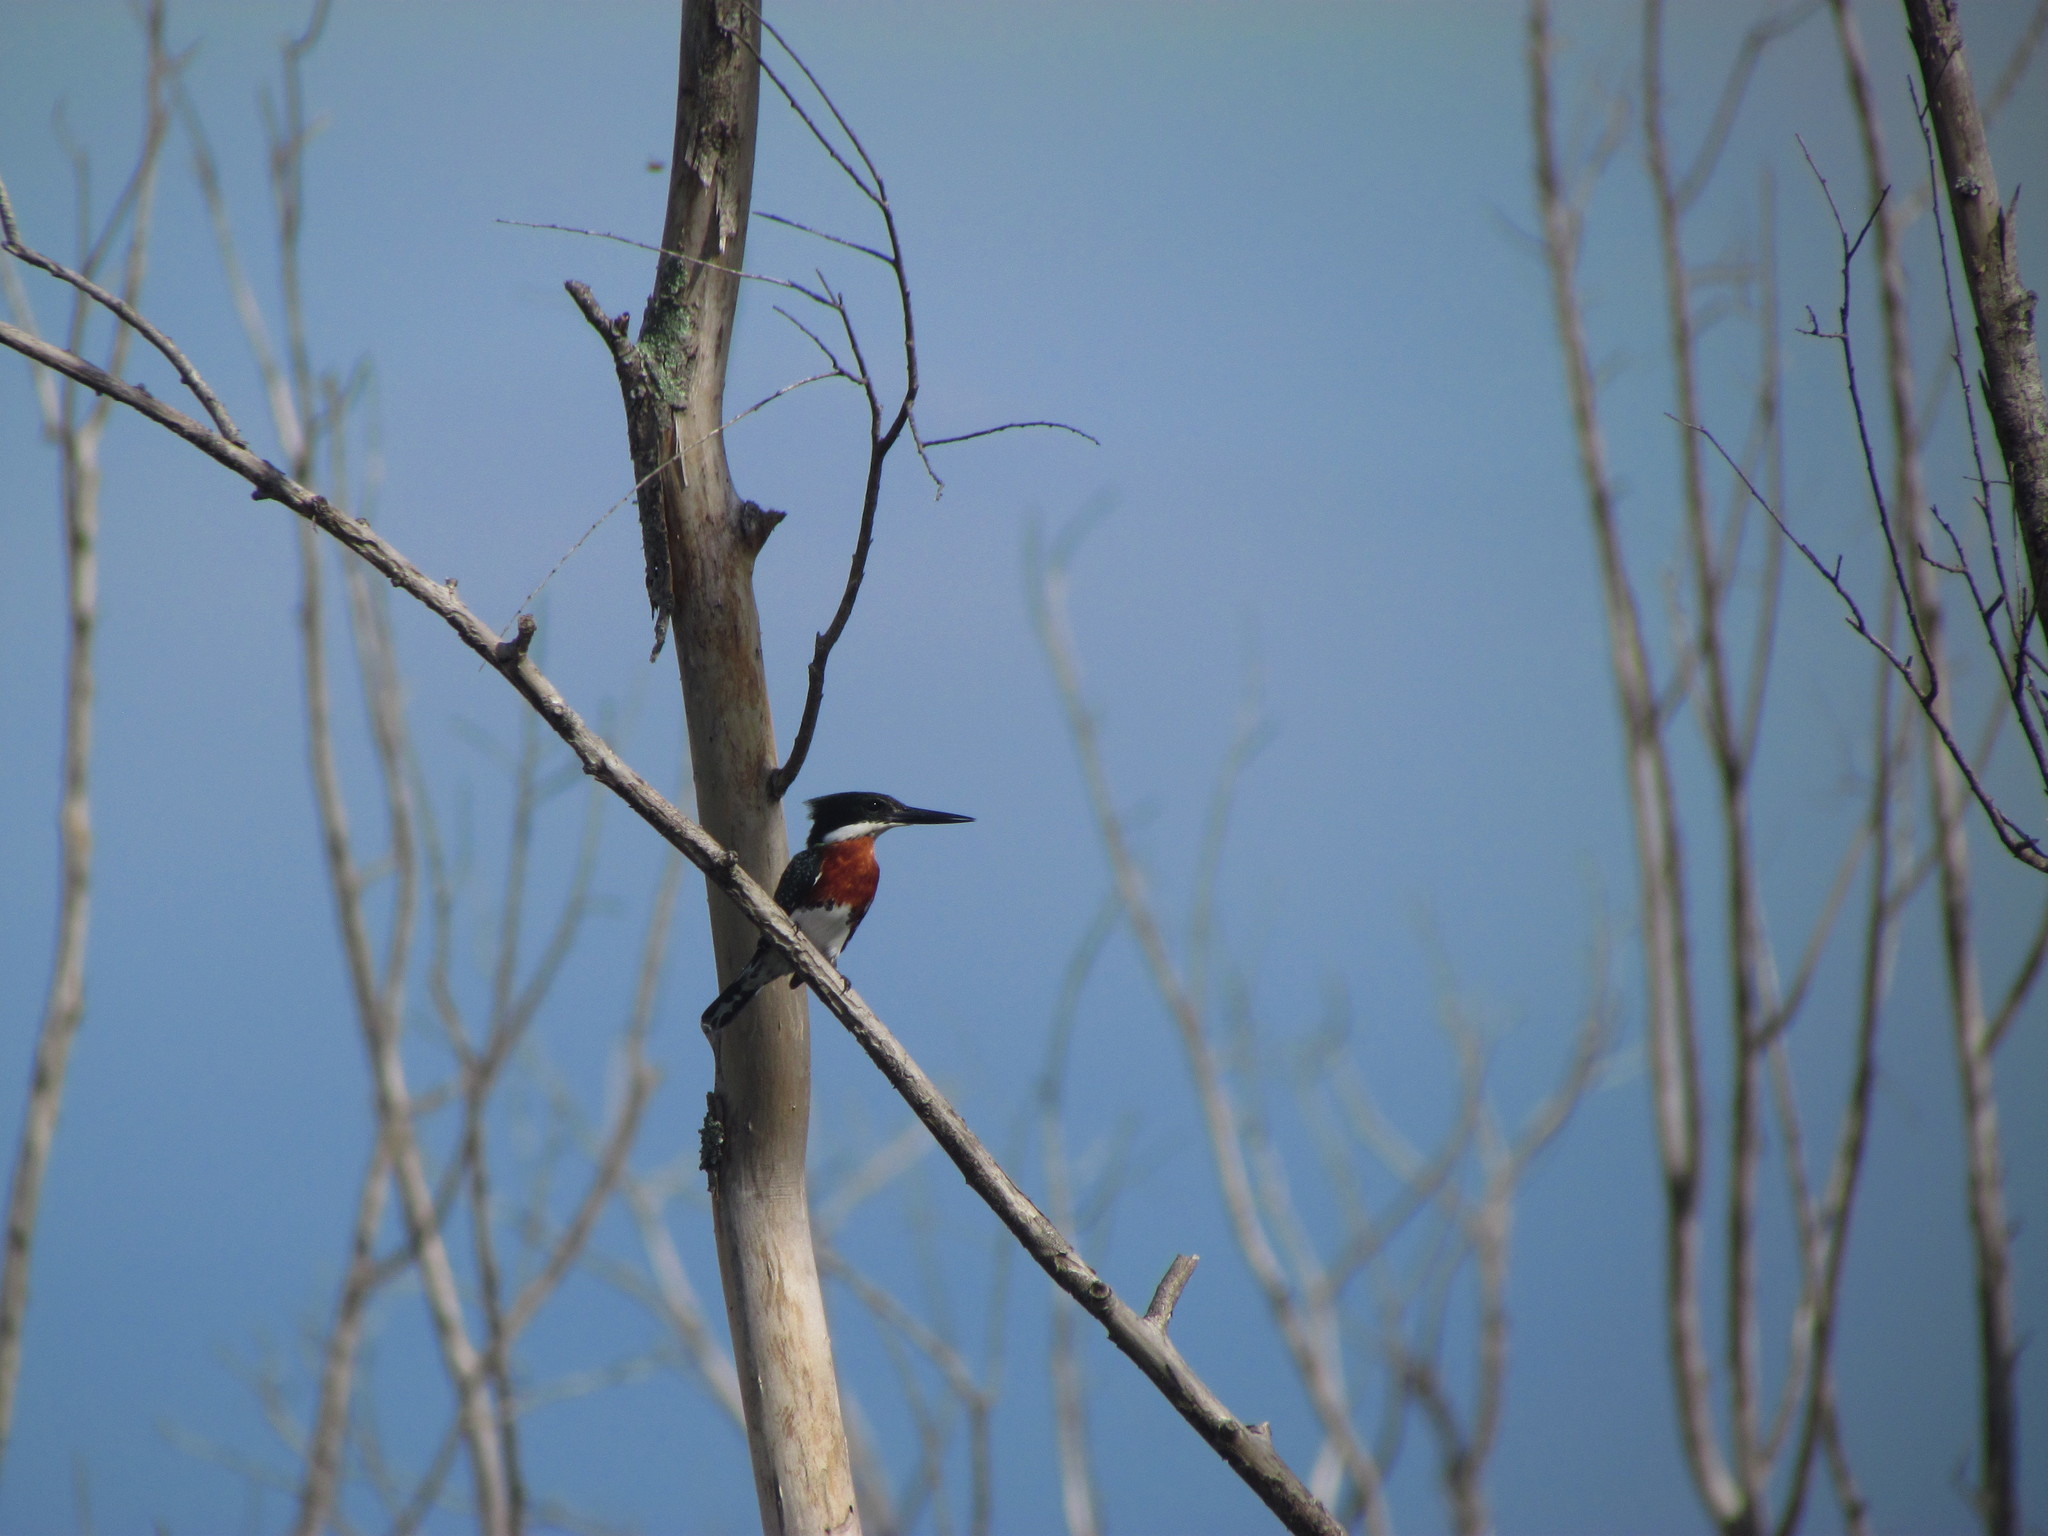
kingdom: Animalia
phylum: Chordata
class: Aves
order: Coraciiformes
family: Alcedinidae
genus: Chloroceryle
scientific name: Chloroceryle americana
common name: Green kingfisher
